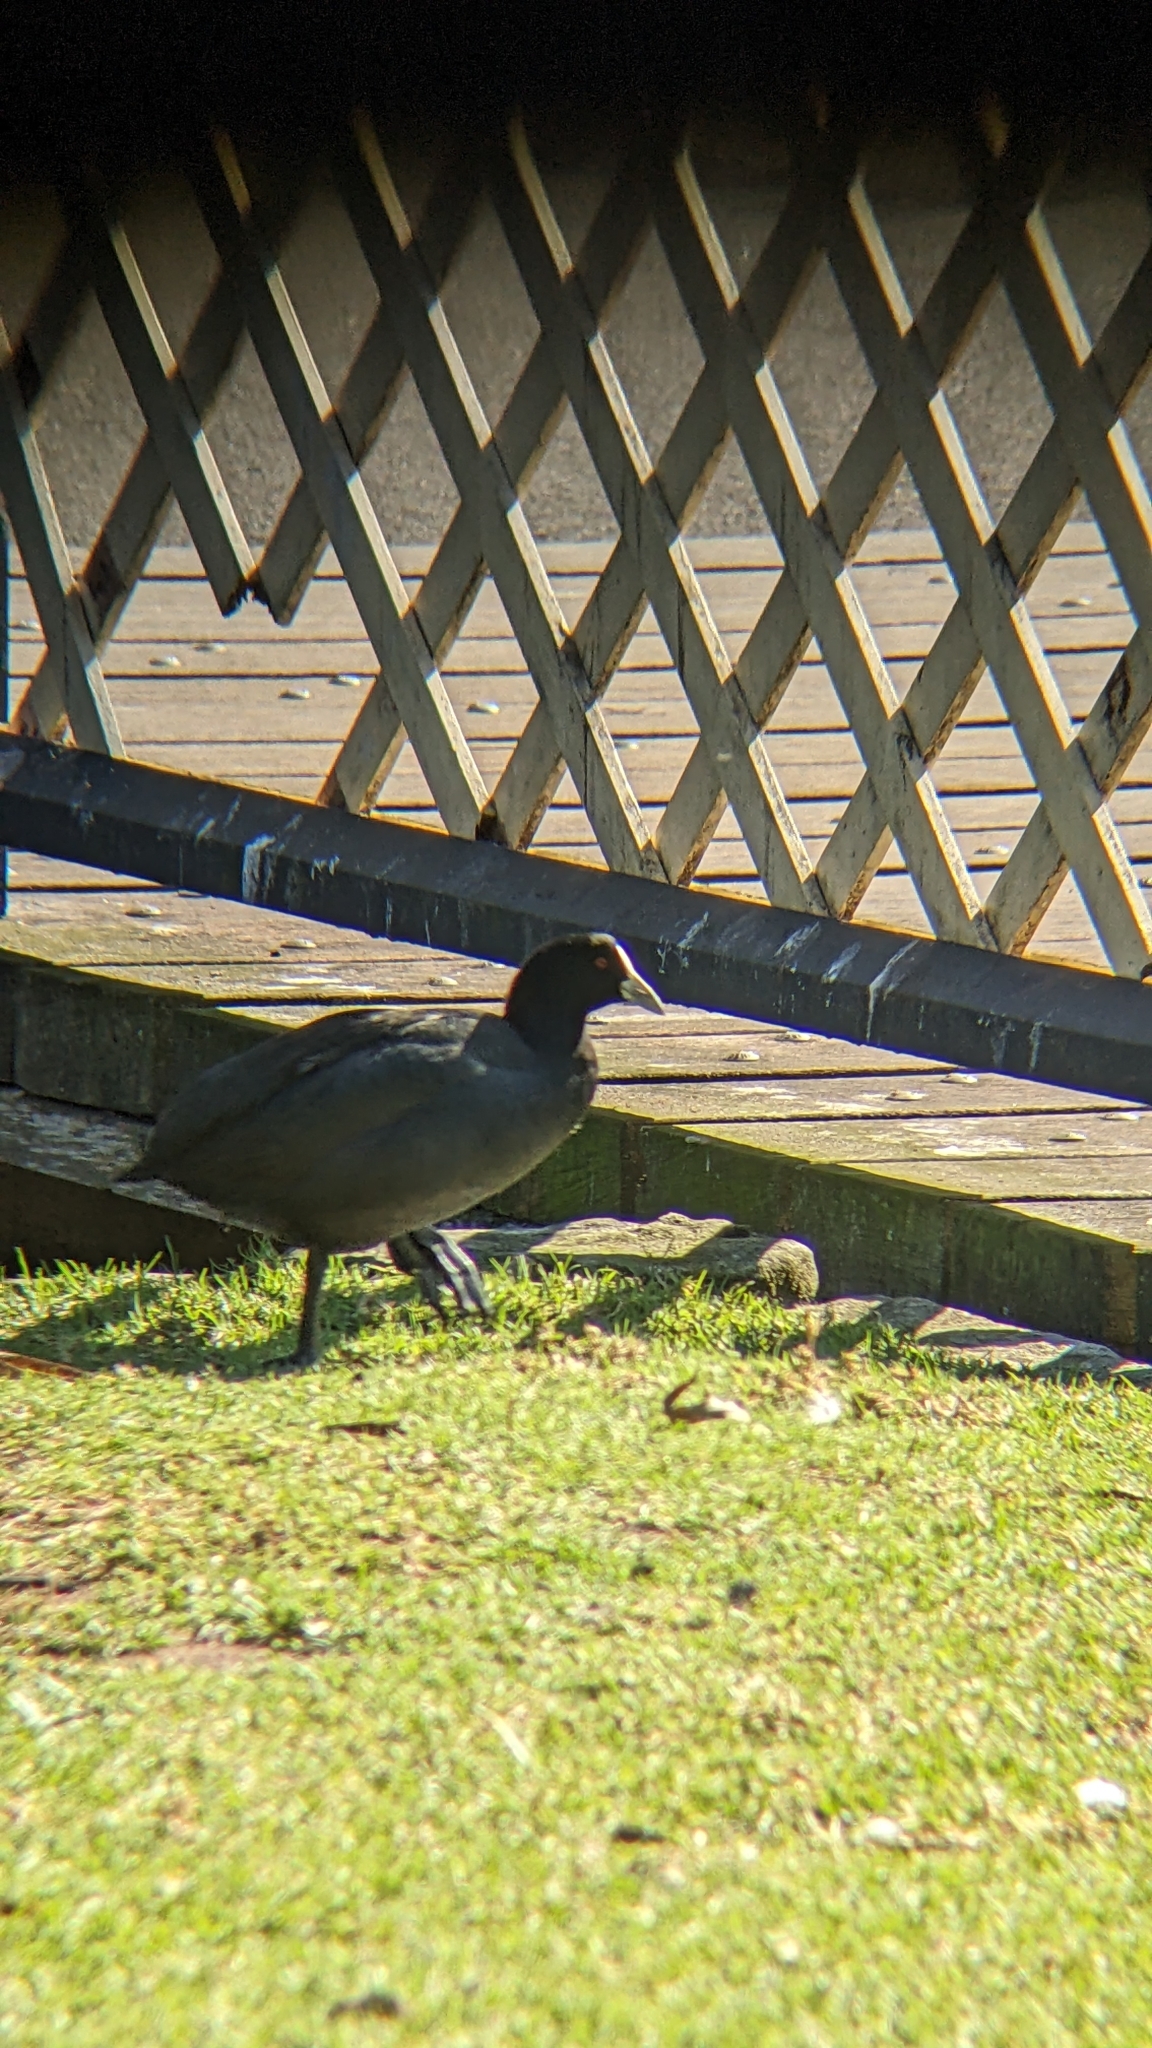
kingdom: Animalia
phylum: Chordata
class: Aves
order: Gruiformes
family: Rallidae
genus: Fulica
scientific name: Fulica atra
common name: Eurasian coot
